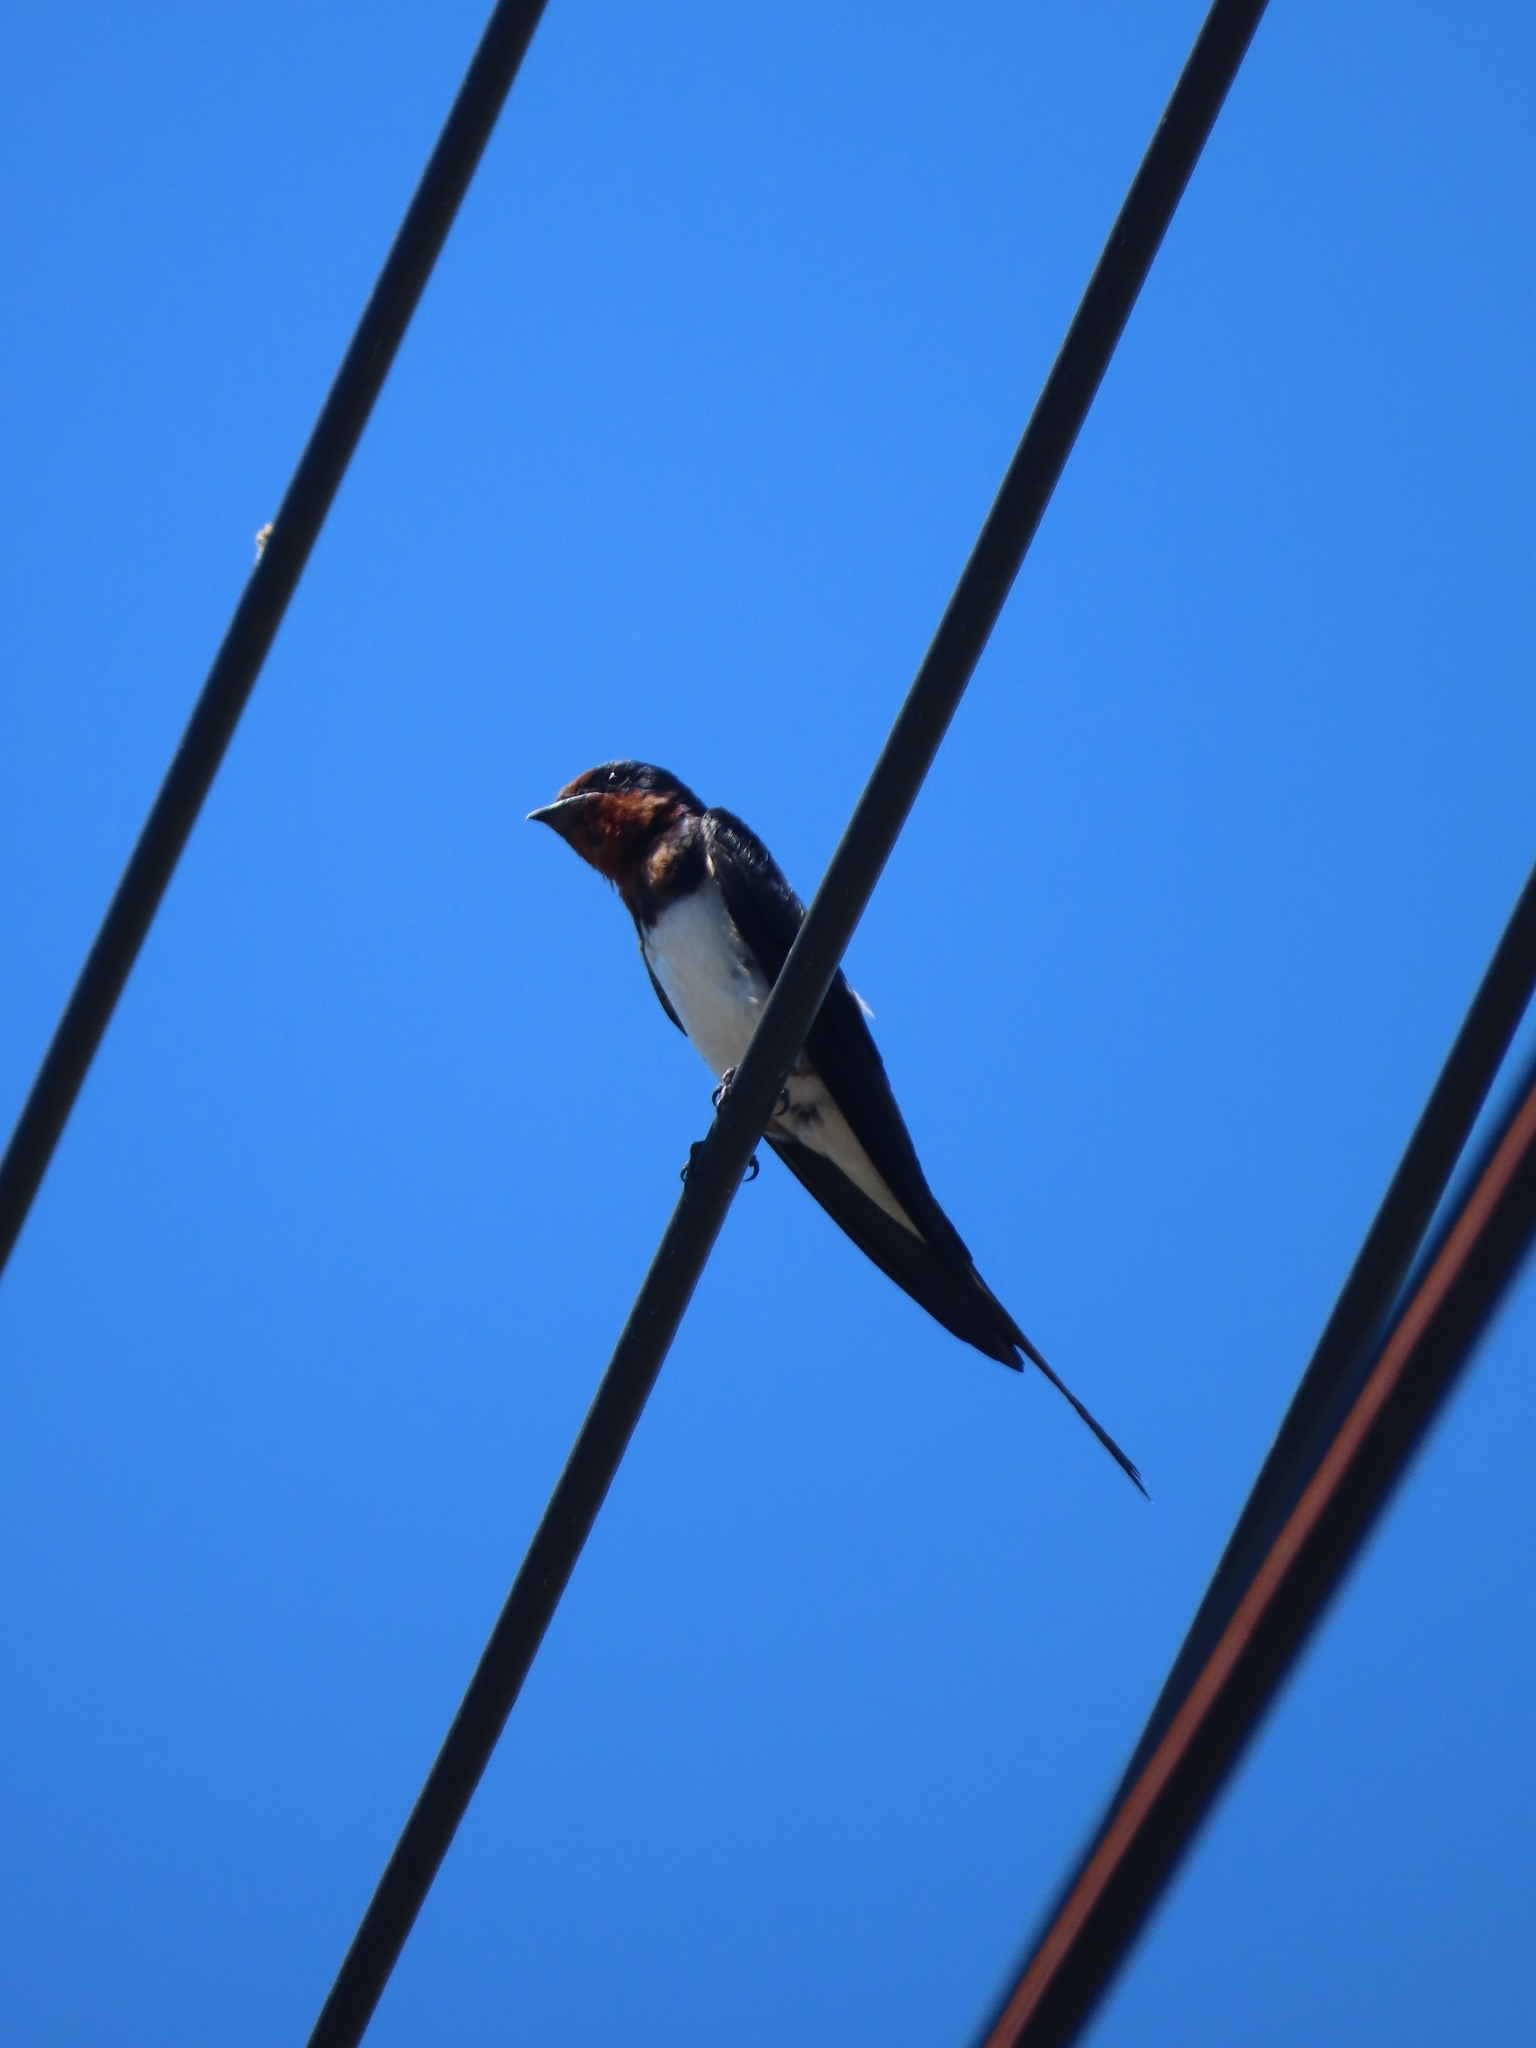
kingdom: Animalia
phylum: Chordata
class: Aves
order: Passeriformes
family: Hirundinidae
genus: Hirundo
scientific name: Hirundo rustica
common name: Barn swallow
